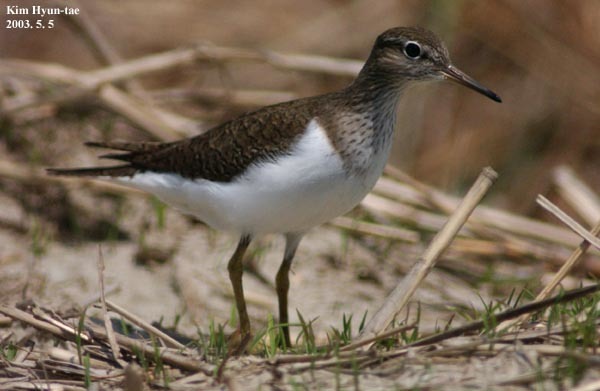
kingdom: Animalia
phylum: Chordata
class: Aves
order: Charadriiformes
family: Scolopacidae
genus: Actitis
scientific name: Actitis hypoleucos
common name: Common sandpiper
